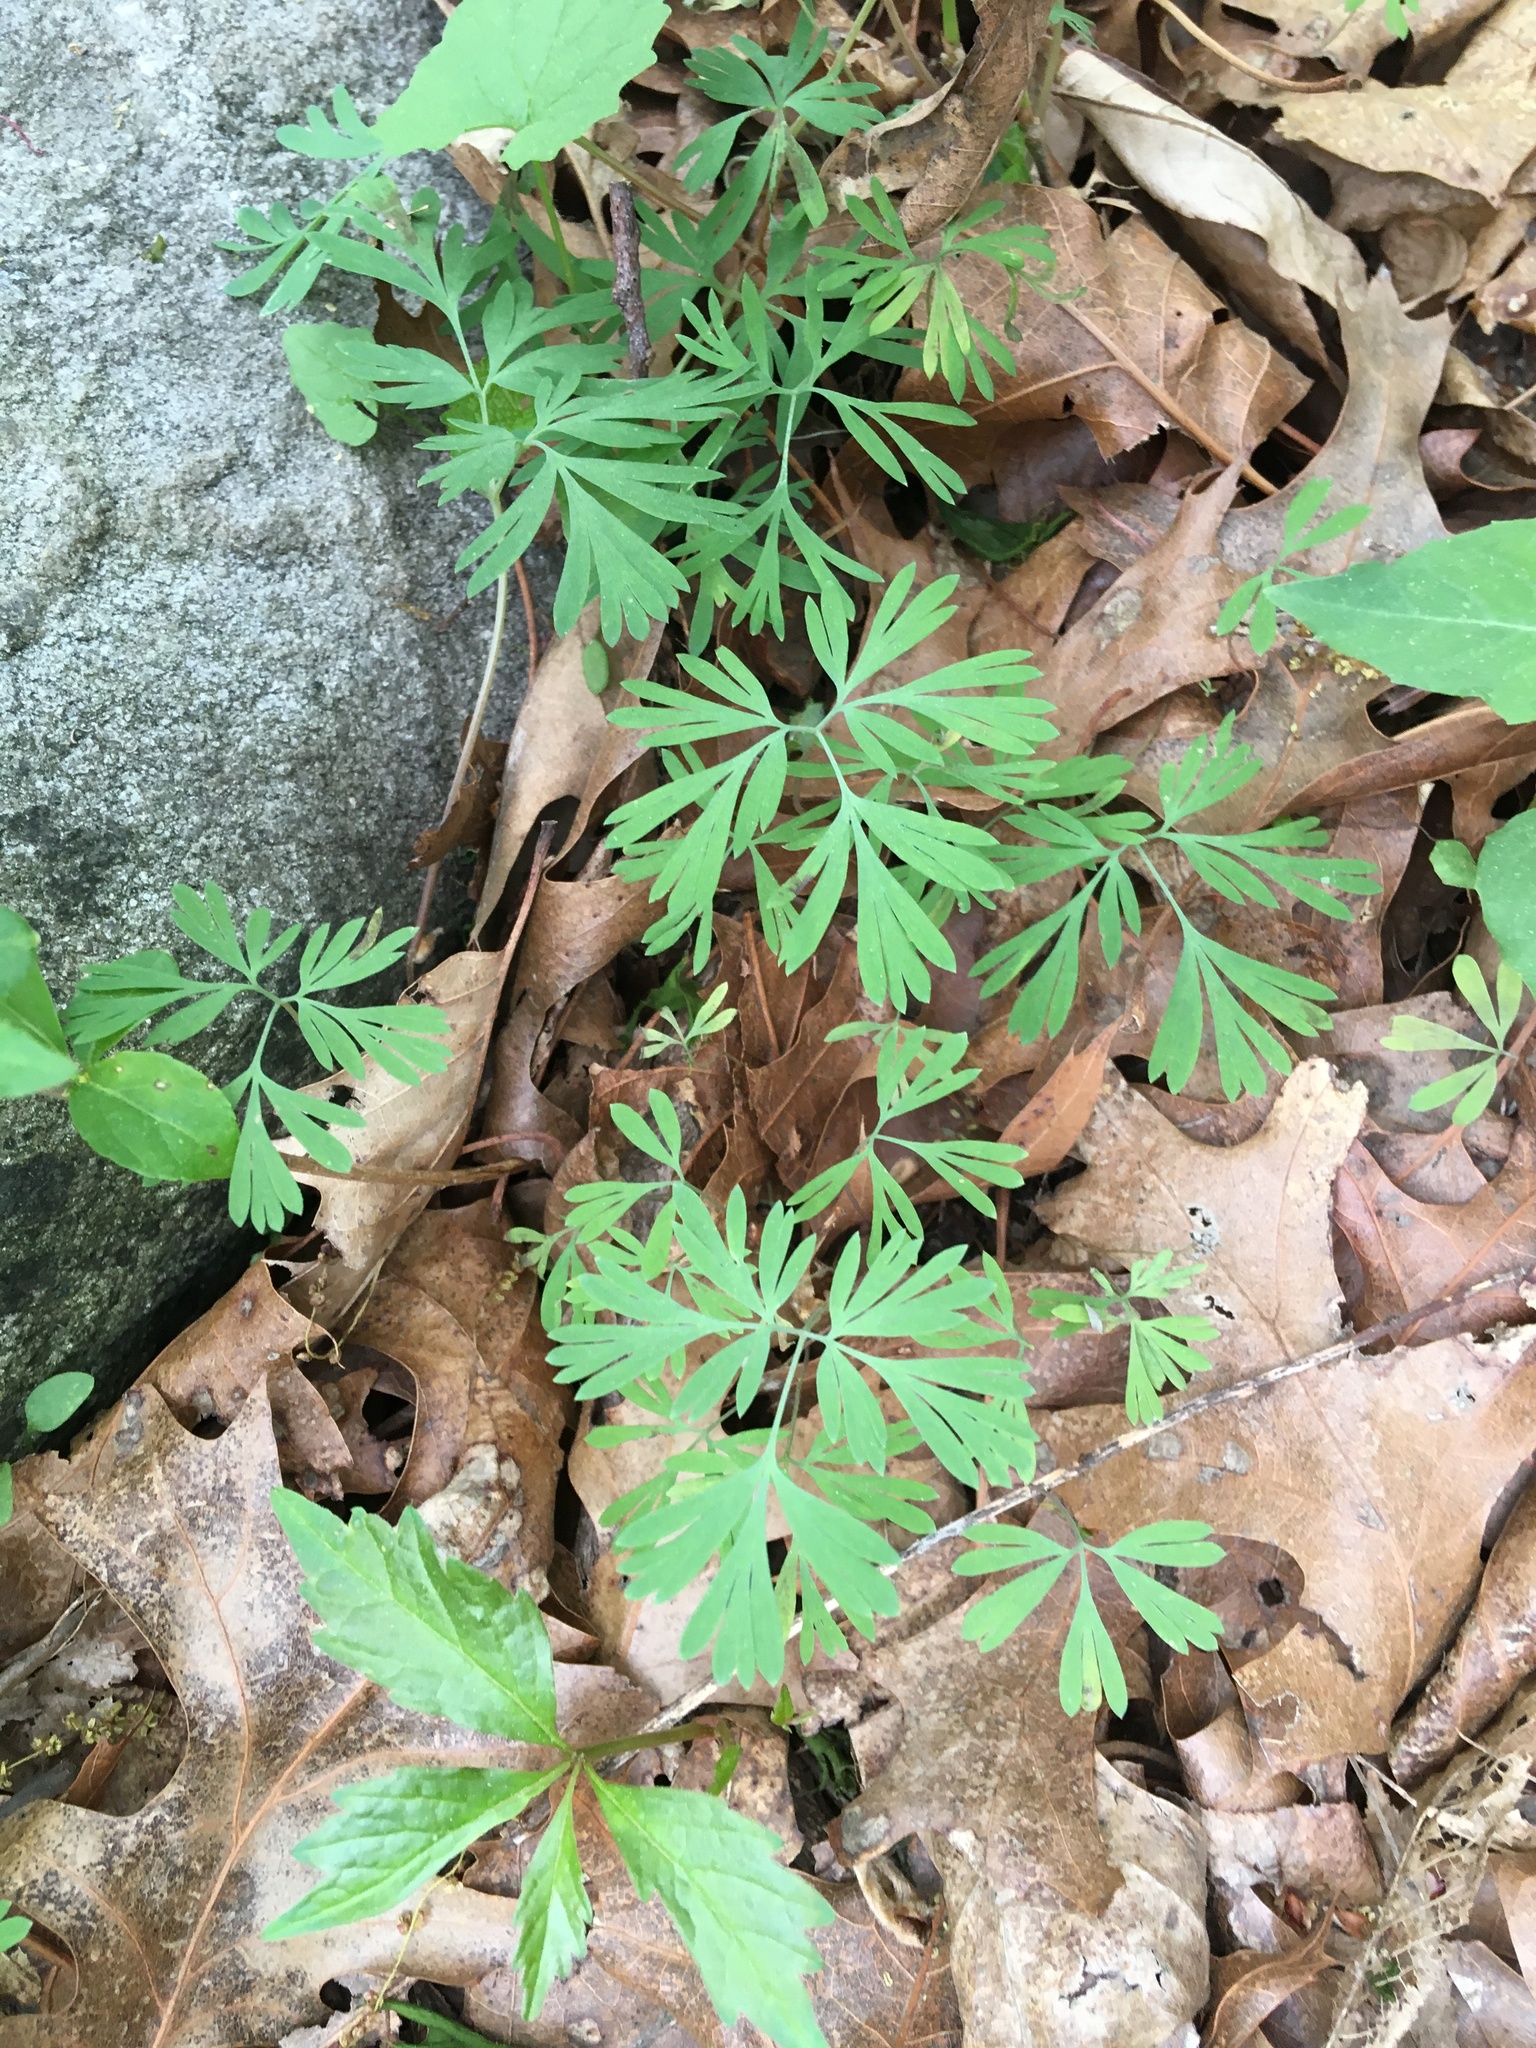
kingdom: Plantae
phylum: Tracheophyta
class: Magnoliopsida
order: Ranunculales
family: Papaveraceae
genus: Dicentra
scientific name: Dicentra cucullaria
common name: Dutchman's breeches
